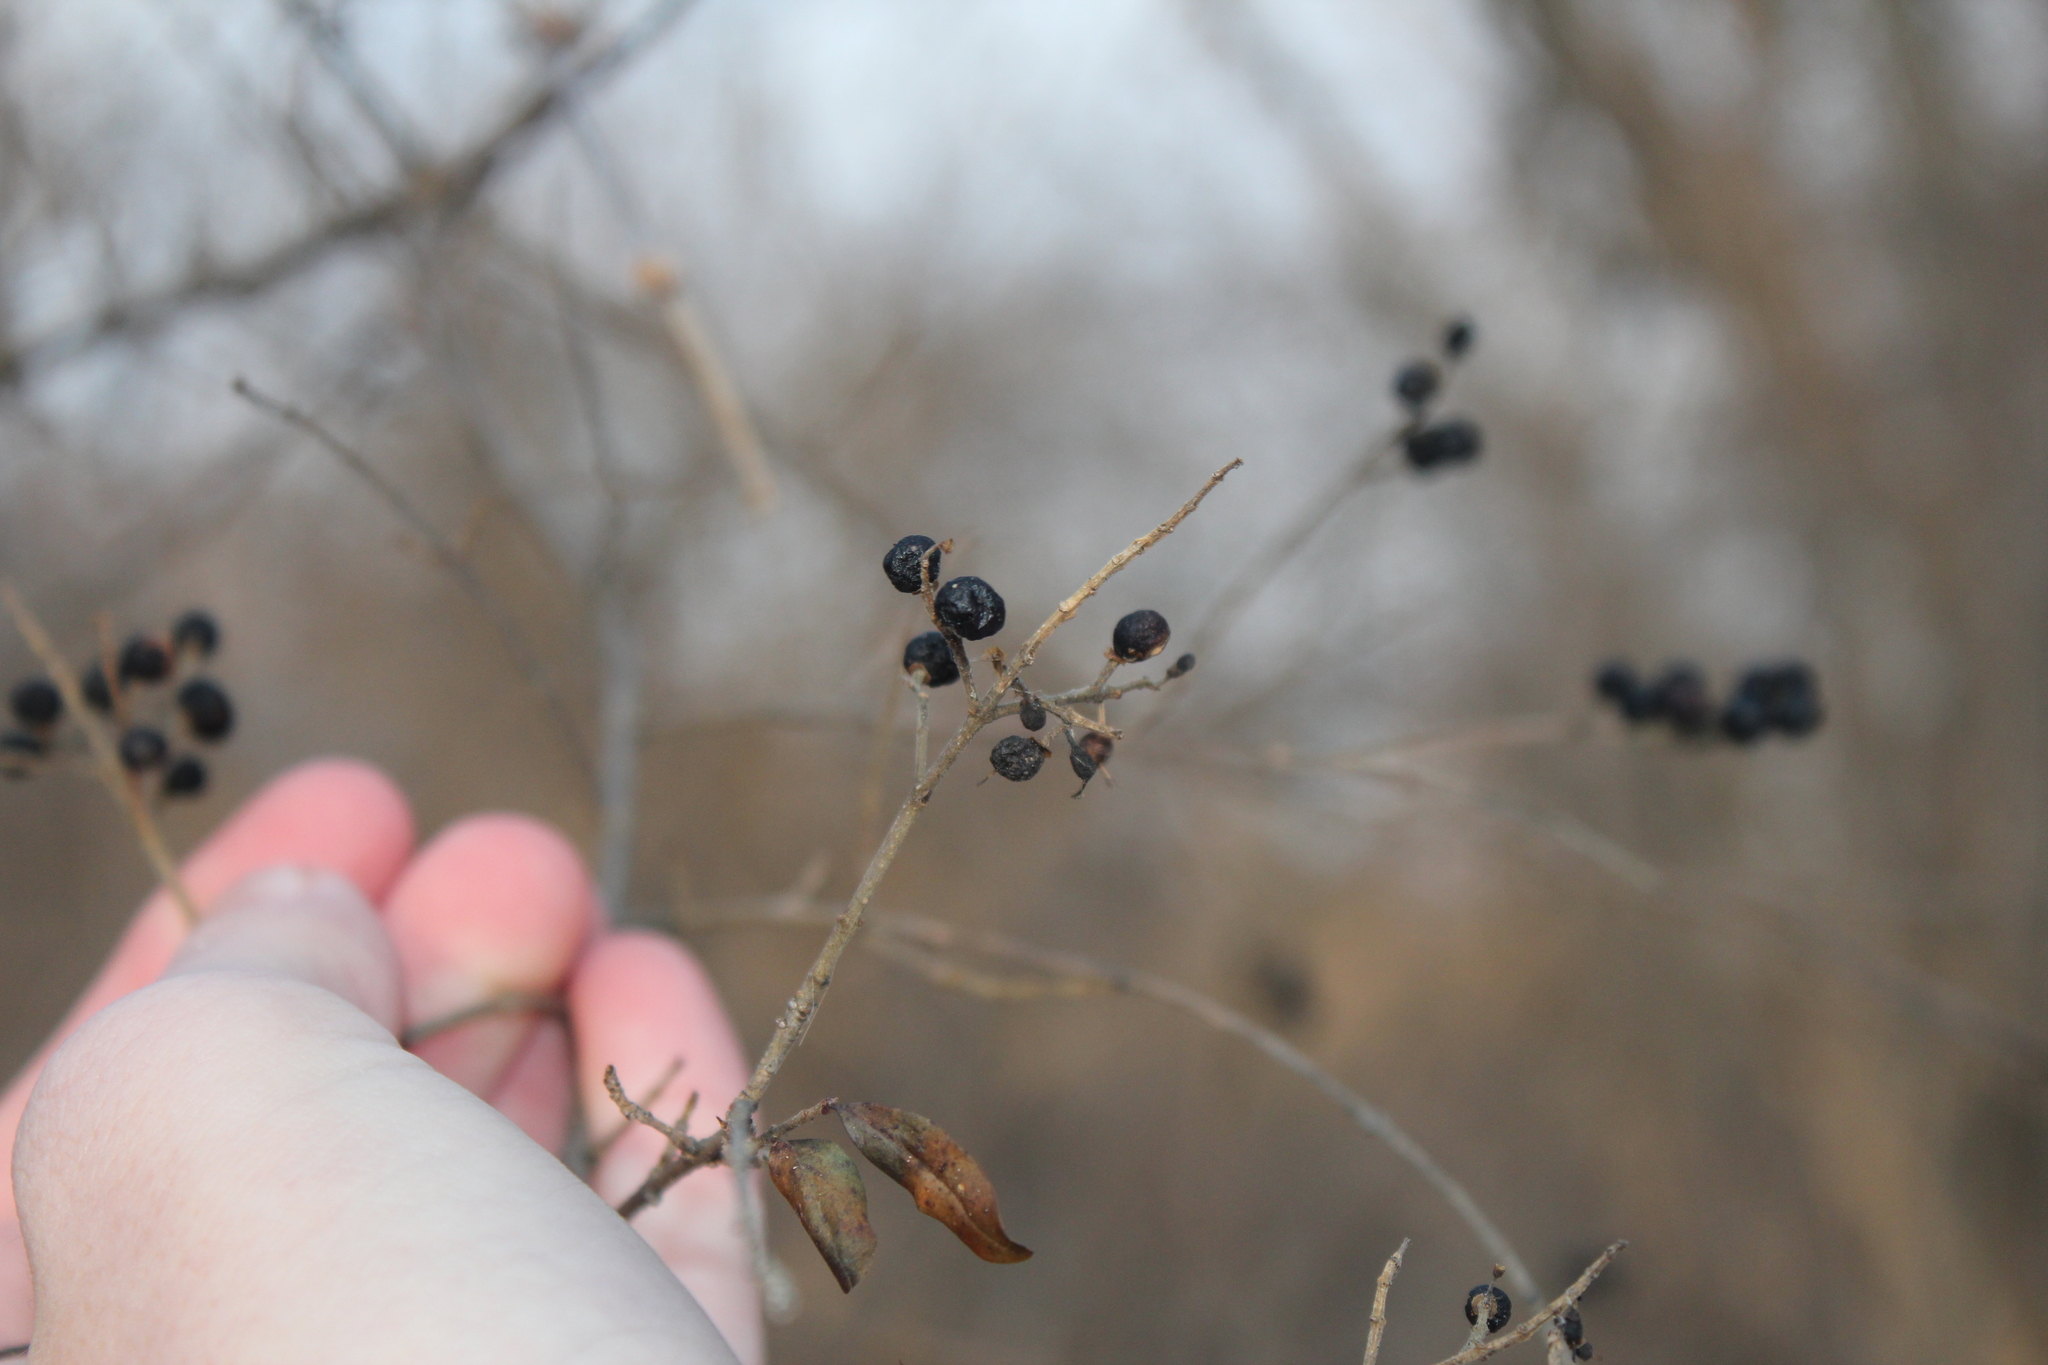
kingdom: Plantae
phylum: Tracheophyta
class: Magnoliopsida
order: Lamiales
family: Oleaceae
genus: Ligustrum
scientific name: Ligustrum vulgare
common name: Wild privet
